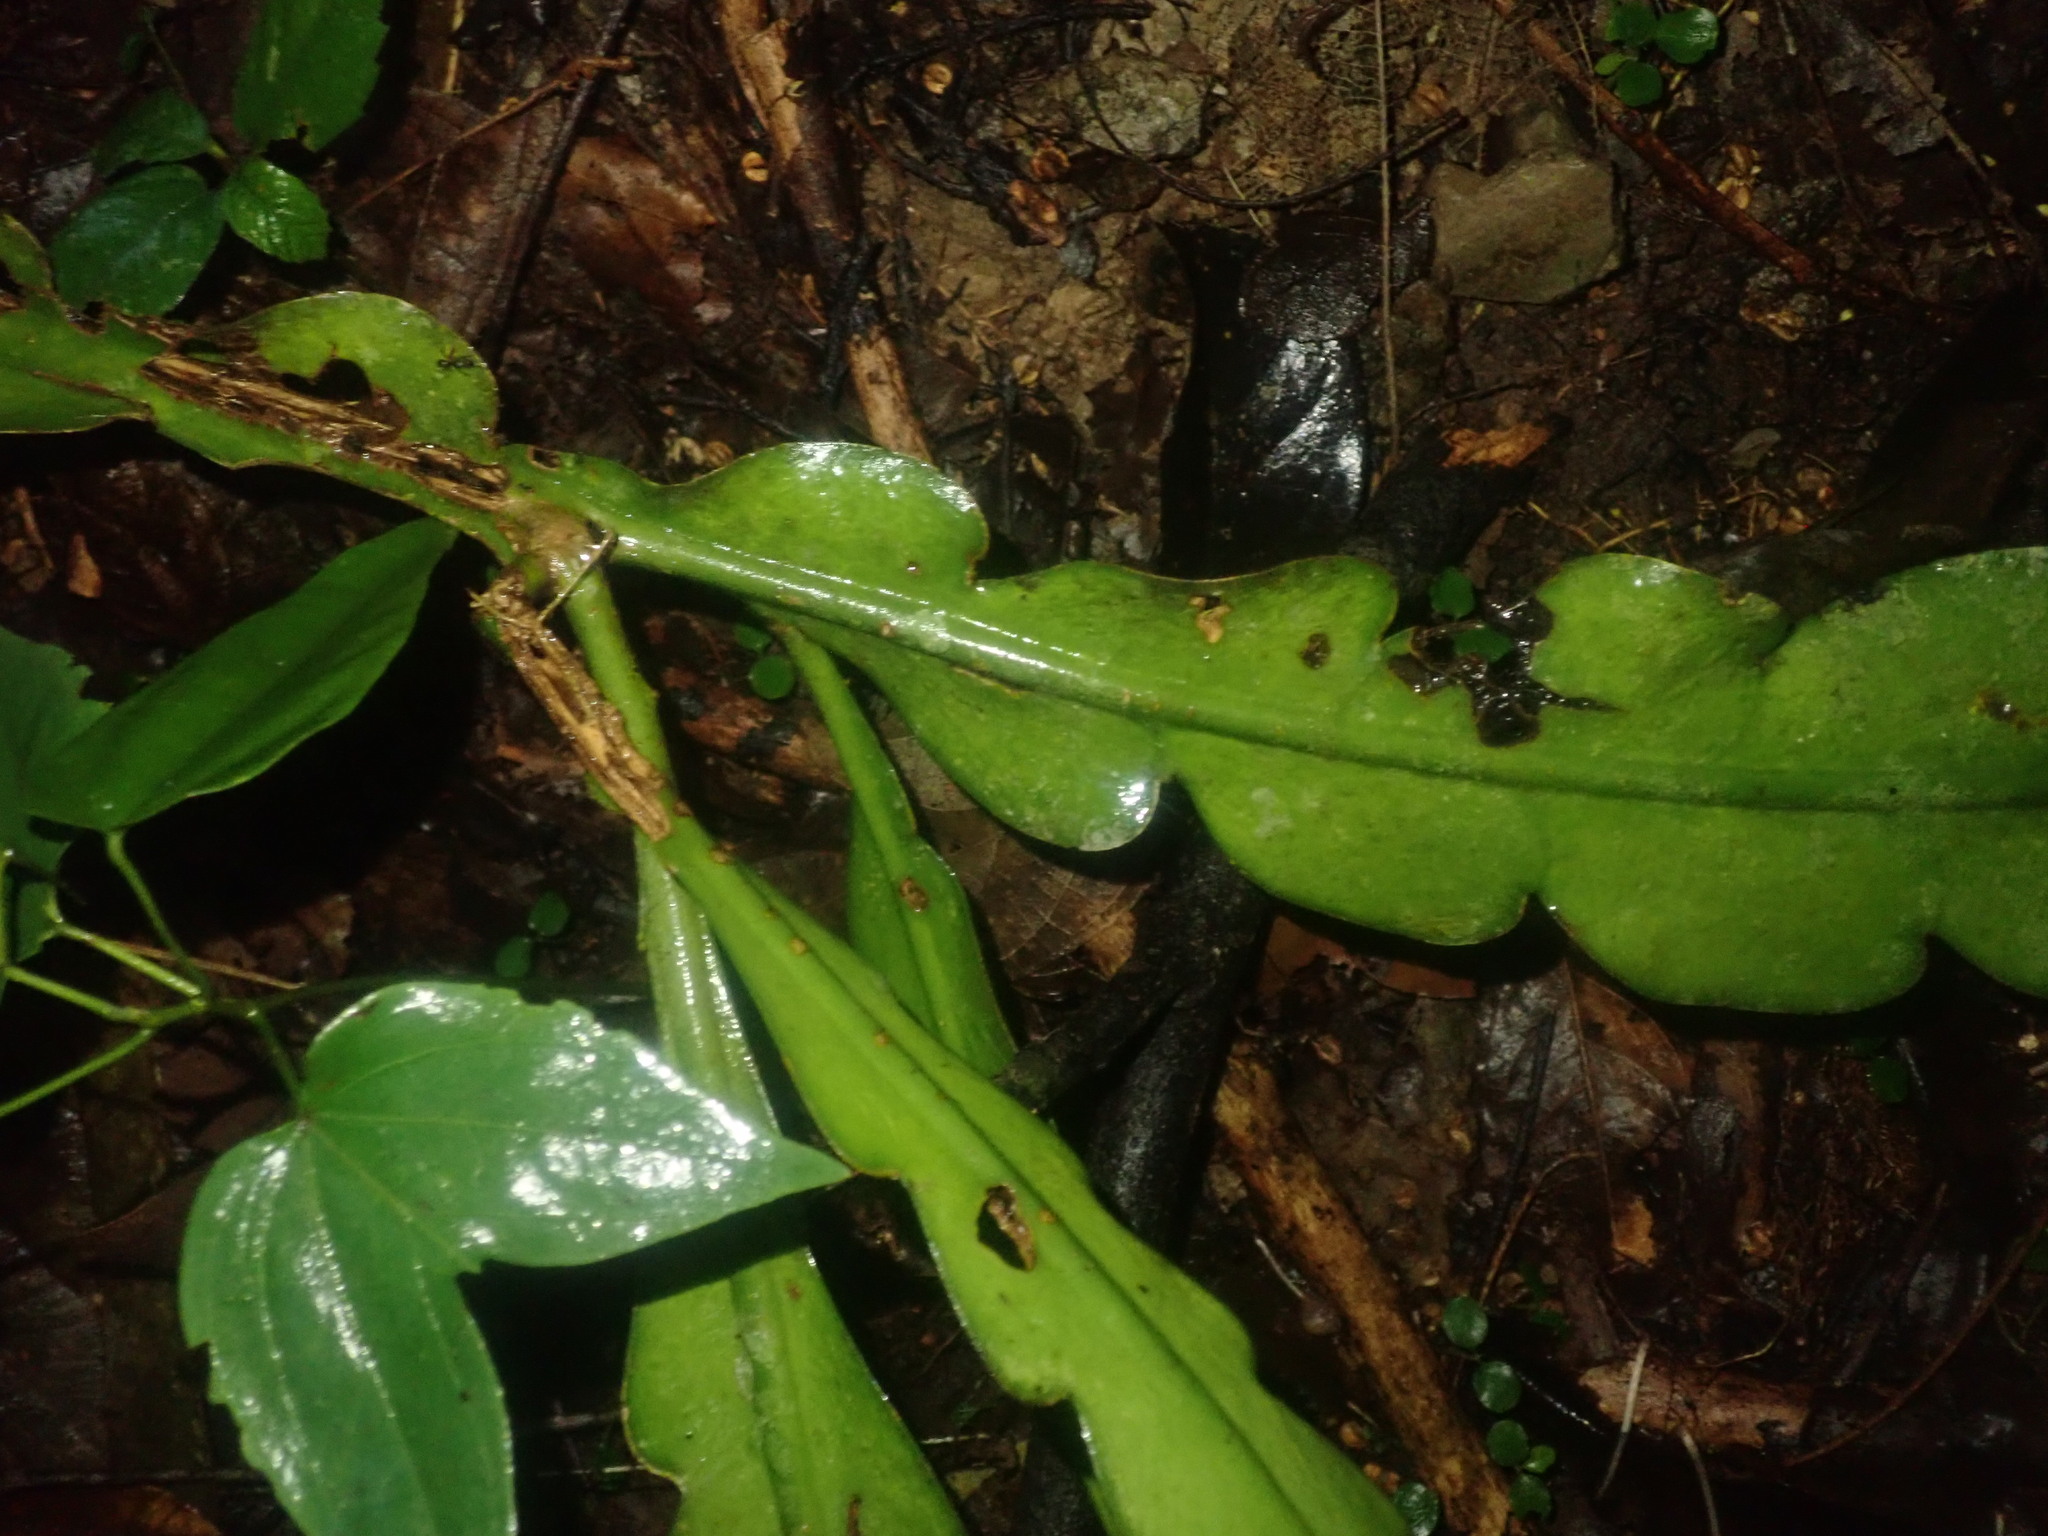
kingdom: Plantae
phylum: Tracheophyta
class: Magnoliopsida
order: Caryophyllales
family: Cactaceae
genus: Epiphyllum
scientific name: Epiphyllum phyllanthus
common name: Climbing cactus
